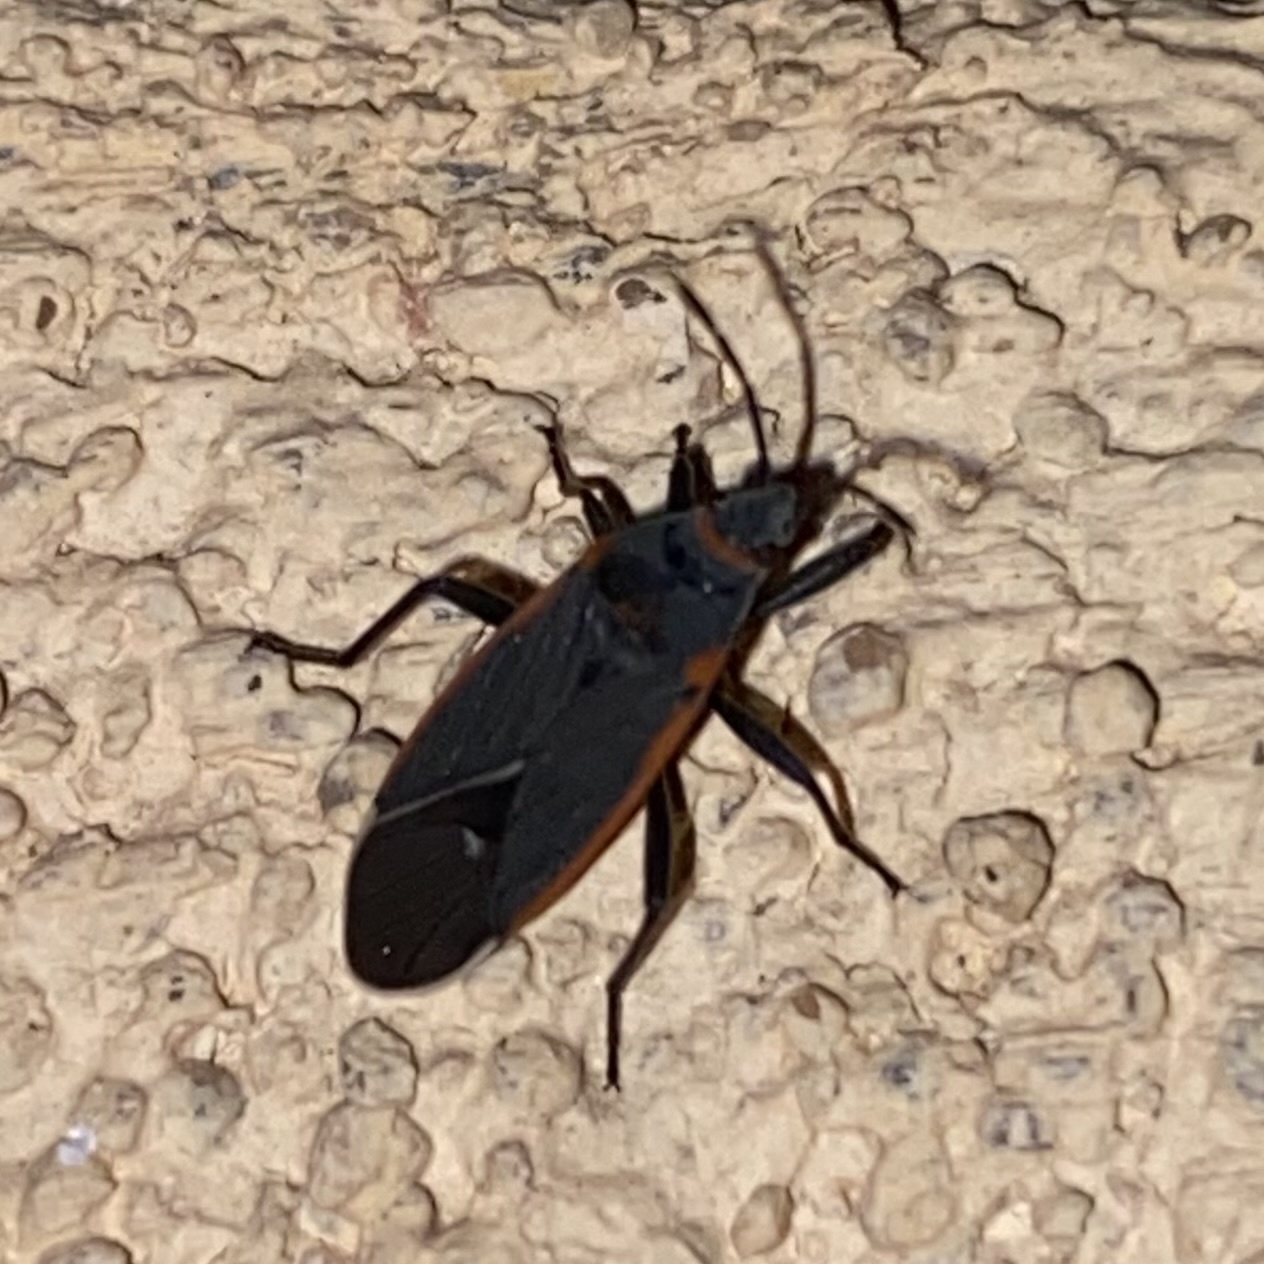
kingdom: Animalia
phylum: Arthropoda
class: Insecta
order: Hemiptera
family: Lygaeidae
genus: Melacoryphus
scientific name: Melacoryphus lateralis
